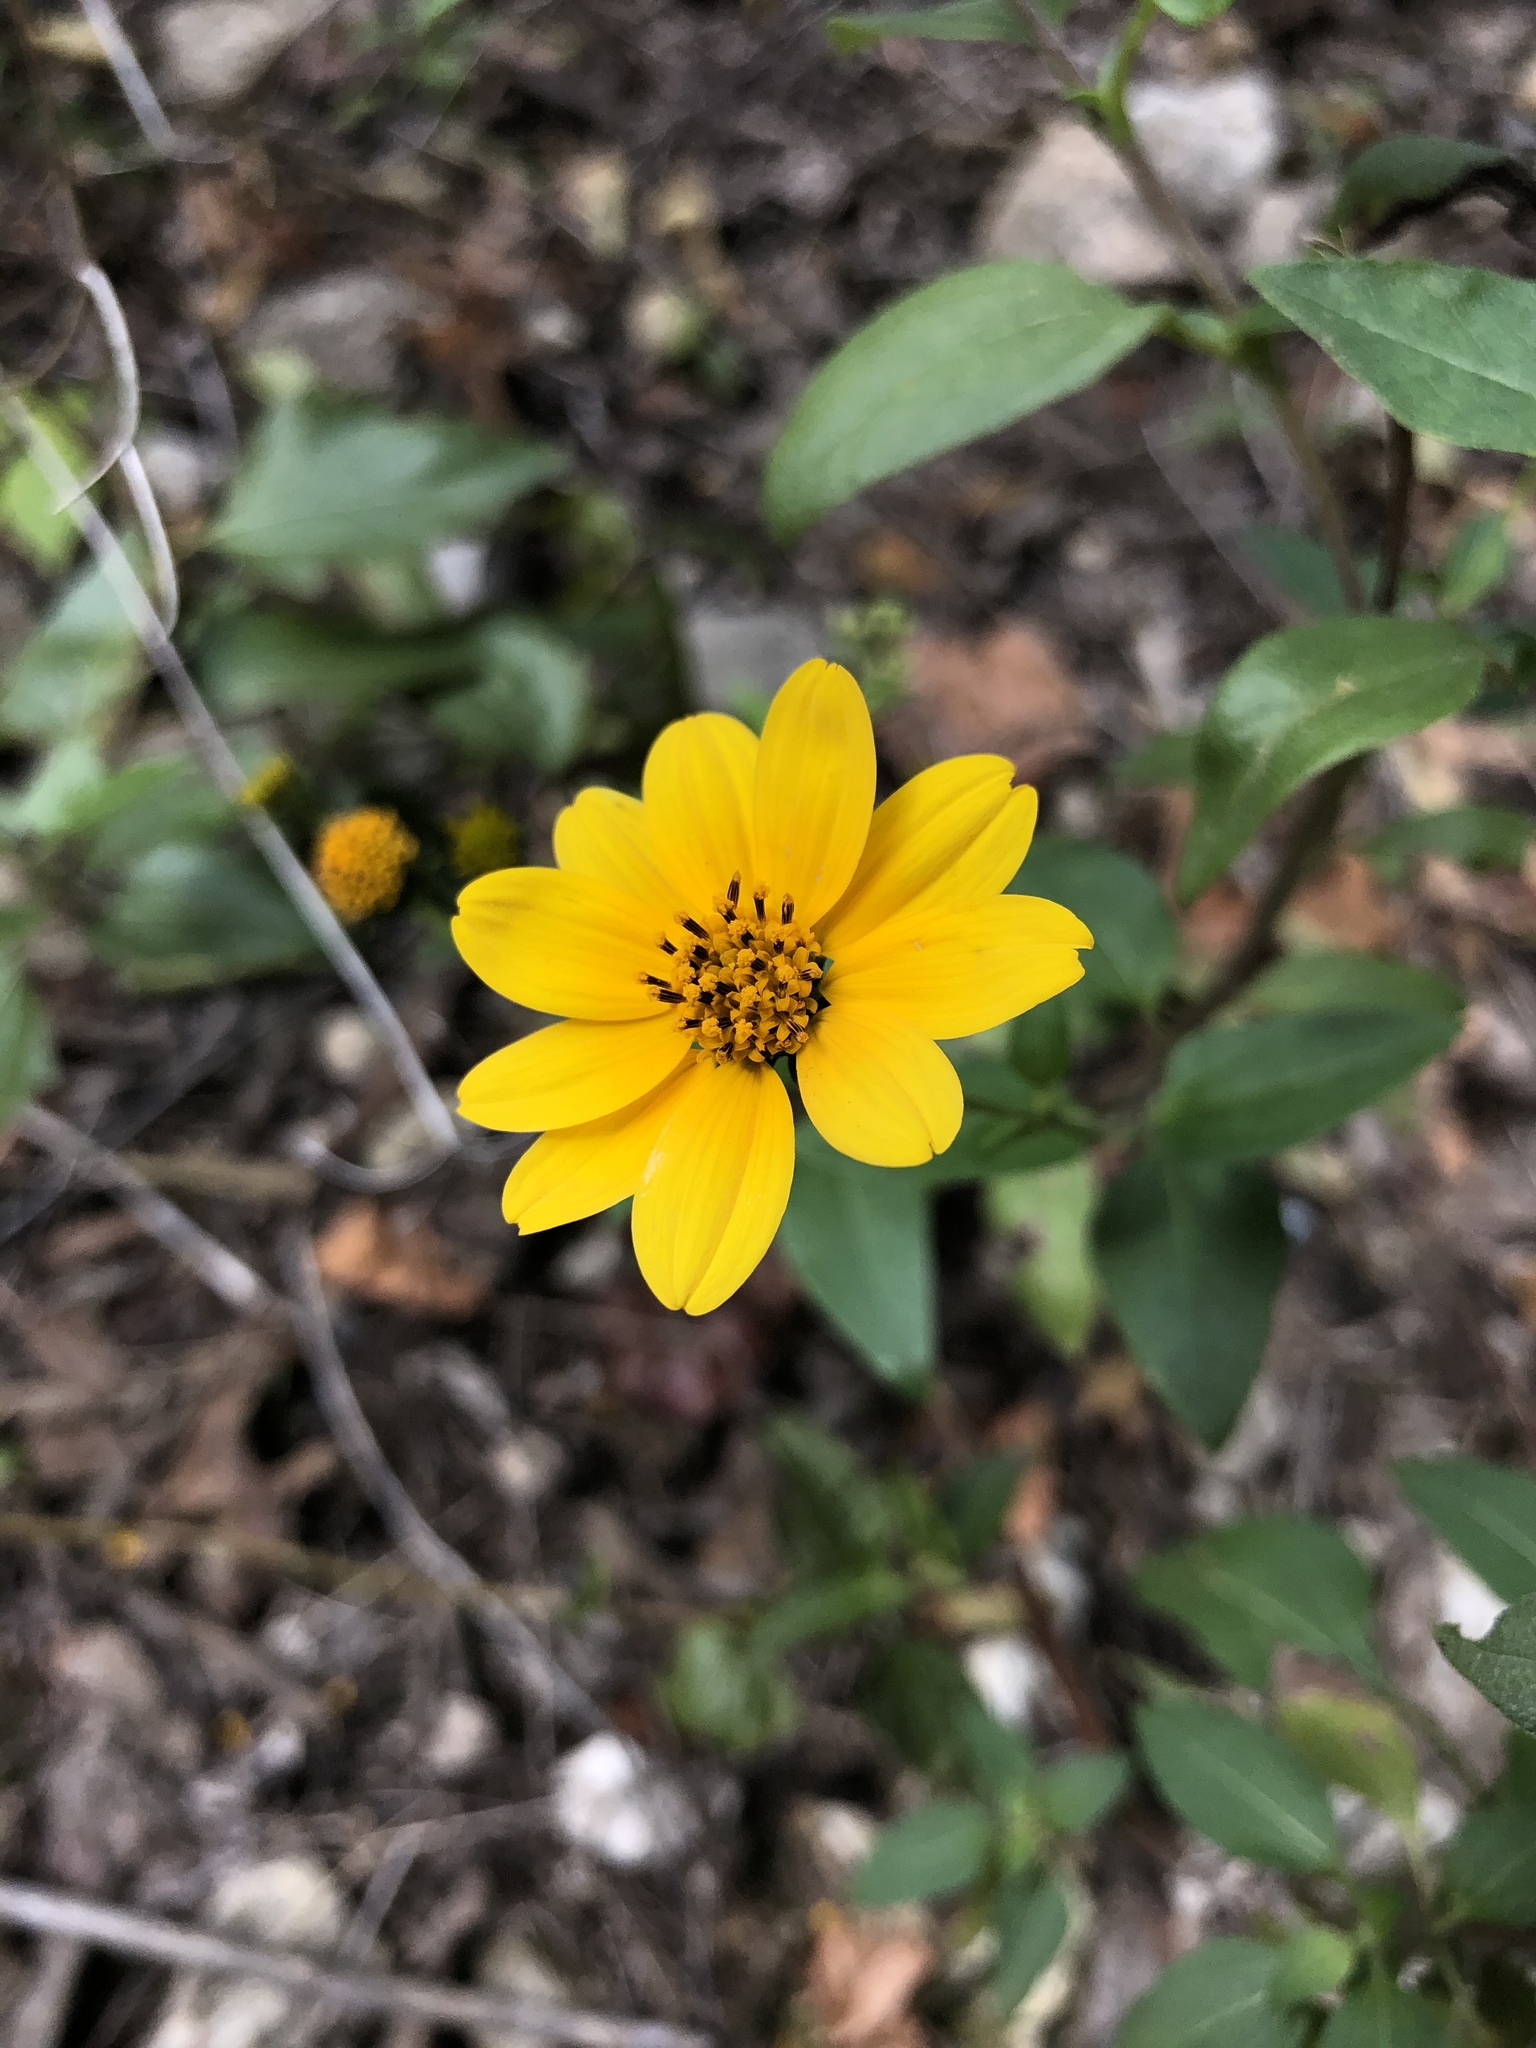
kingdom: Plantae
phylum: Tracheophyta
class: Magnoliopsida
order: Asterales
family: Asteraceae
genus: Viguiera
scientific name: Viguiera dentata
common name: Toothleaf
